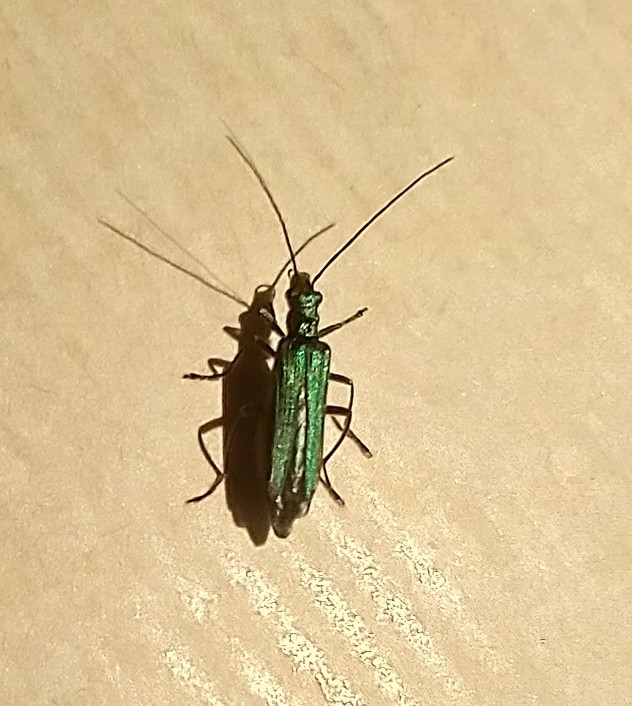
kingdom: Animalia
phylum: Arthropoda
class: Insecta
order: Coleoptera
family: Oedemeridae
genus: Oedemera
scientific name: Oedemera nobilis
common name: Swollen-thighed beetle
